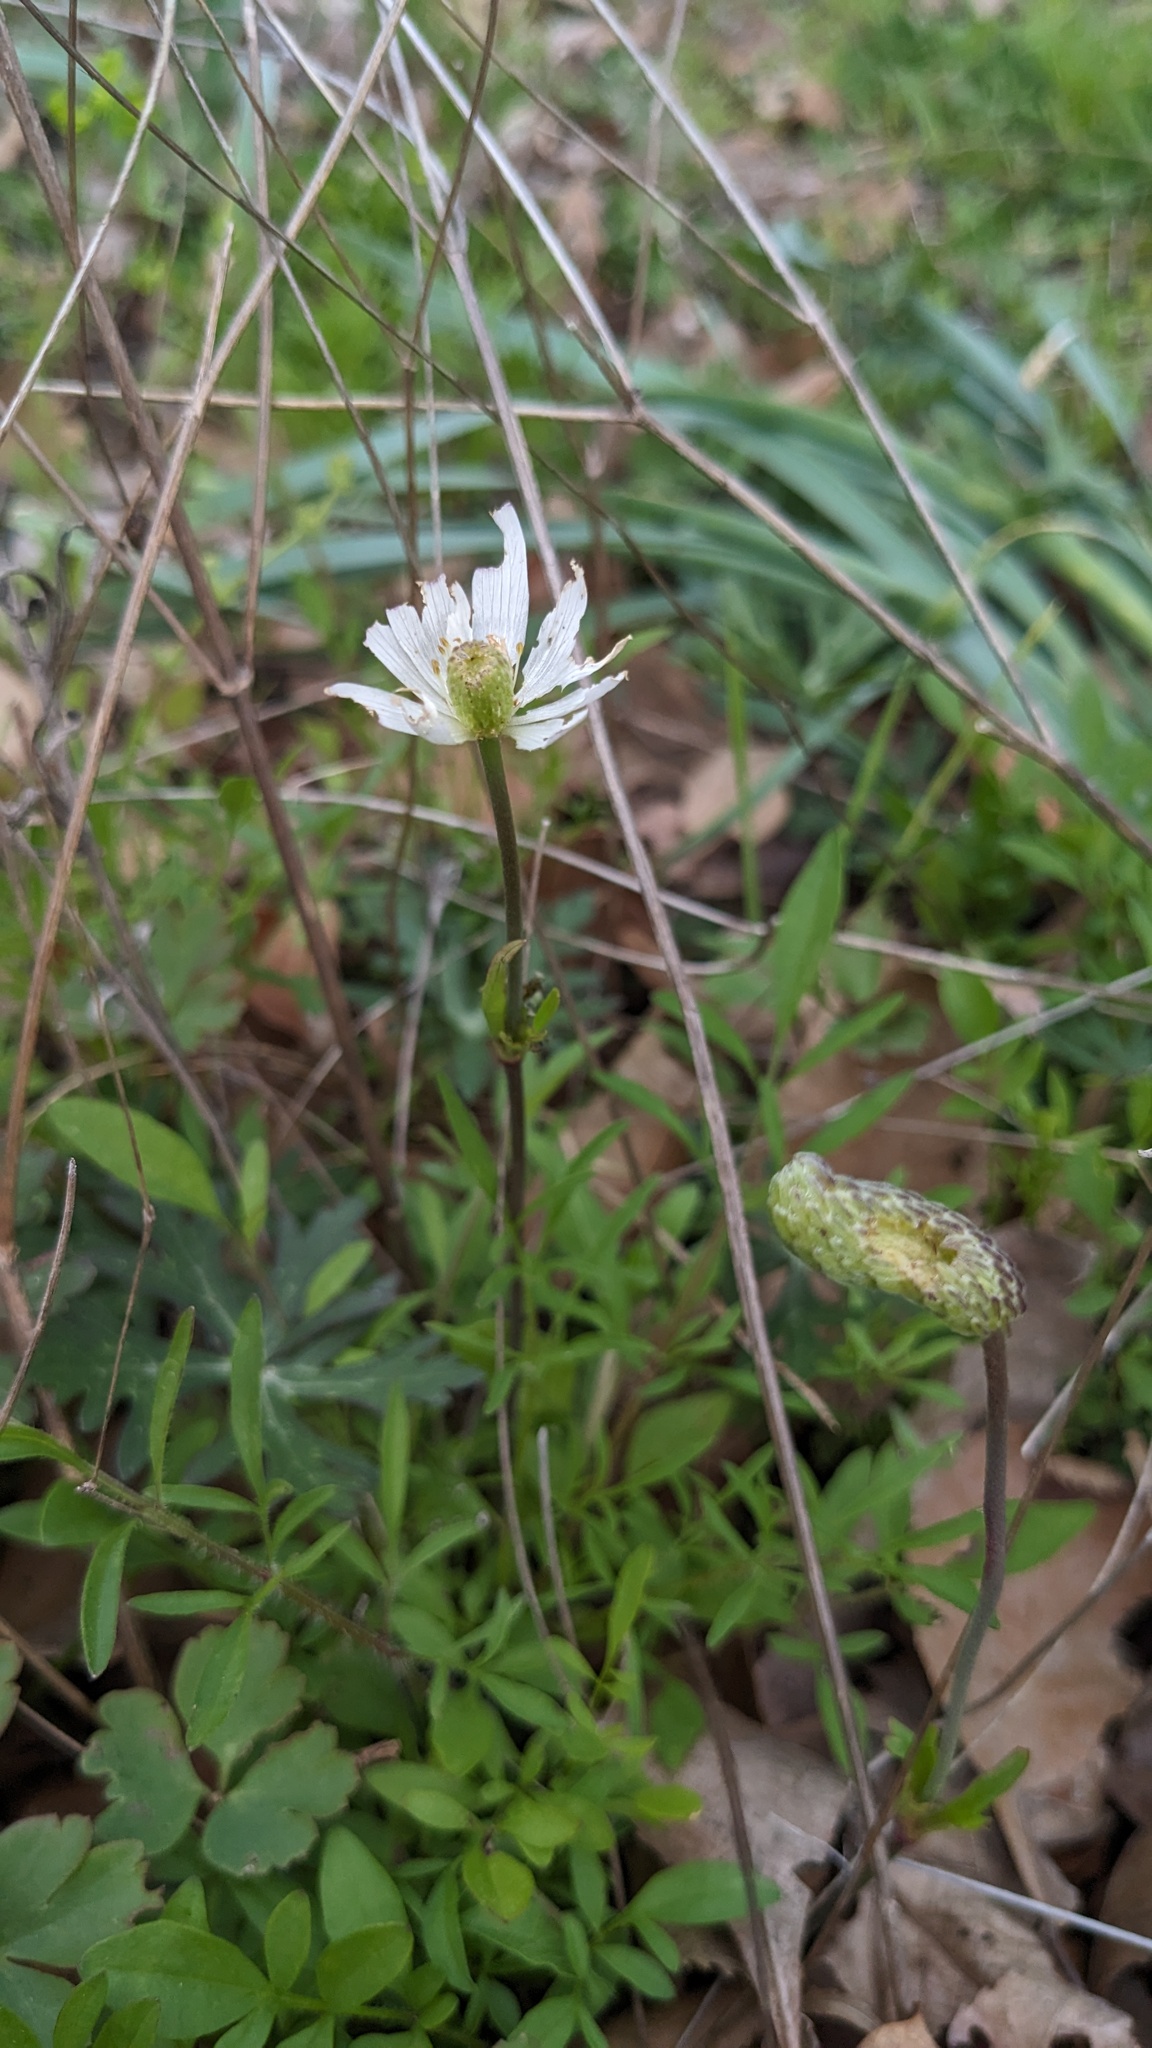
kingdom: Plantae
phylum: Tracheophyta
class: Magnoliopsida
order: Ranunculales
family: Ranunculaceae
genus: Anemone
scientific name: Anemone berlandieri
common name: Ten-petal anemone
